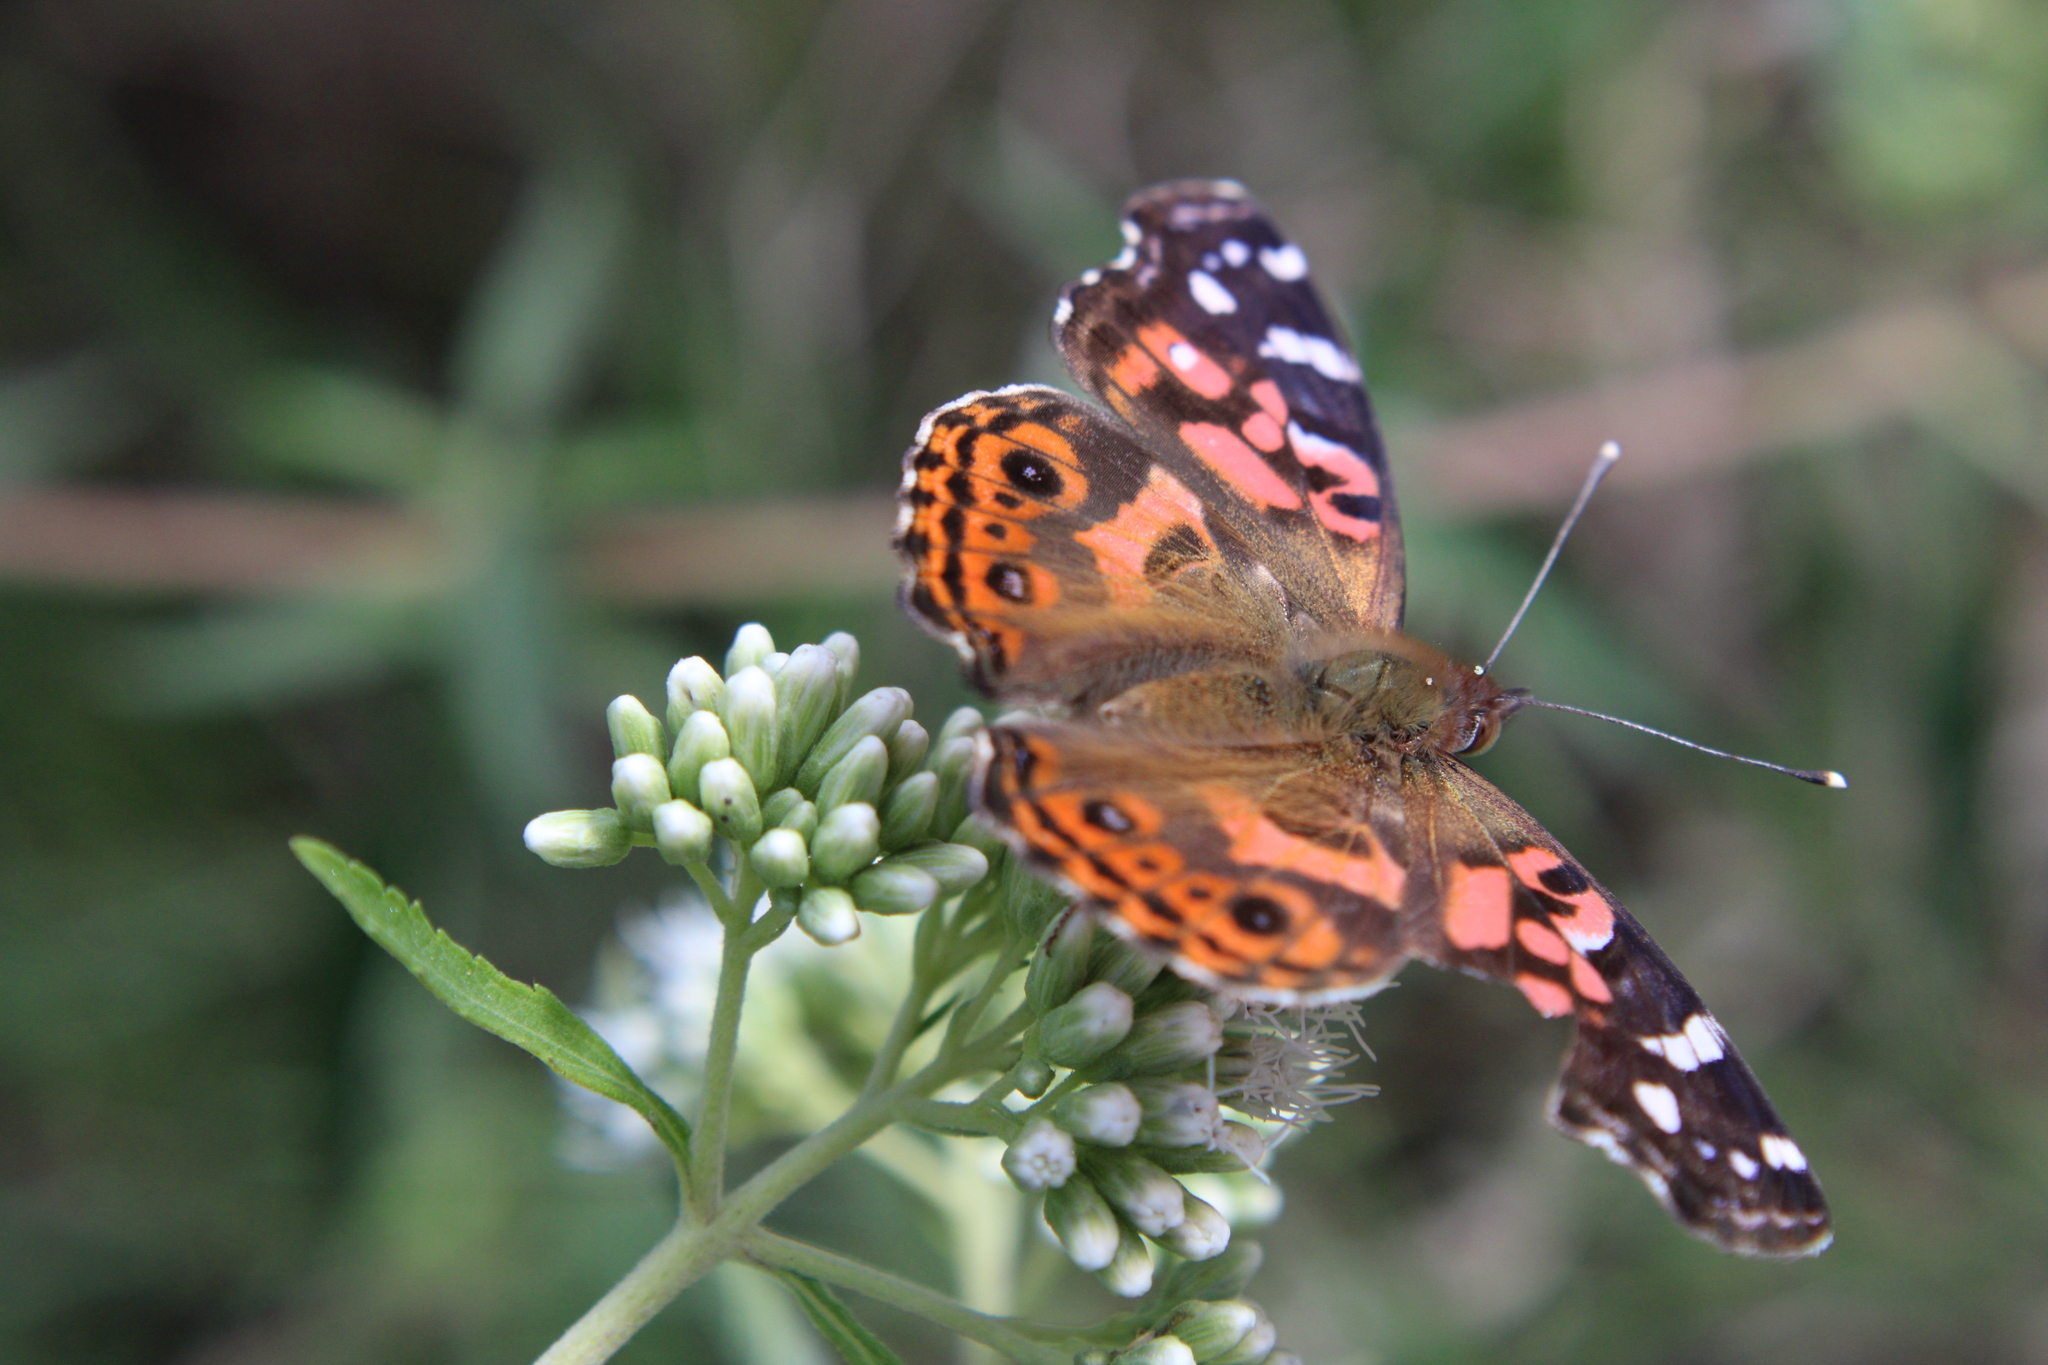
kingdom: Animalia
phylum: Arthropoda
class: Insecta
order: Lepidoptera
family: Nymphalidae
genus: Vanessa
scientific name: Vanessa braziliensis
